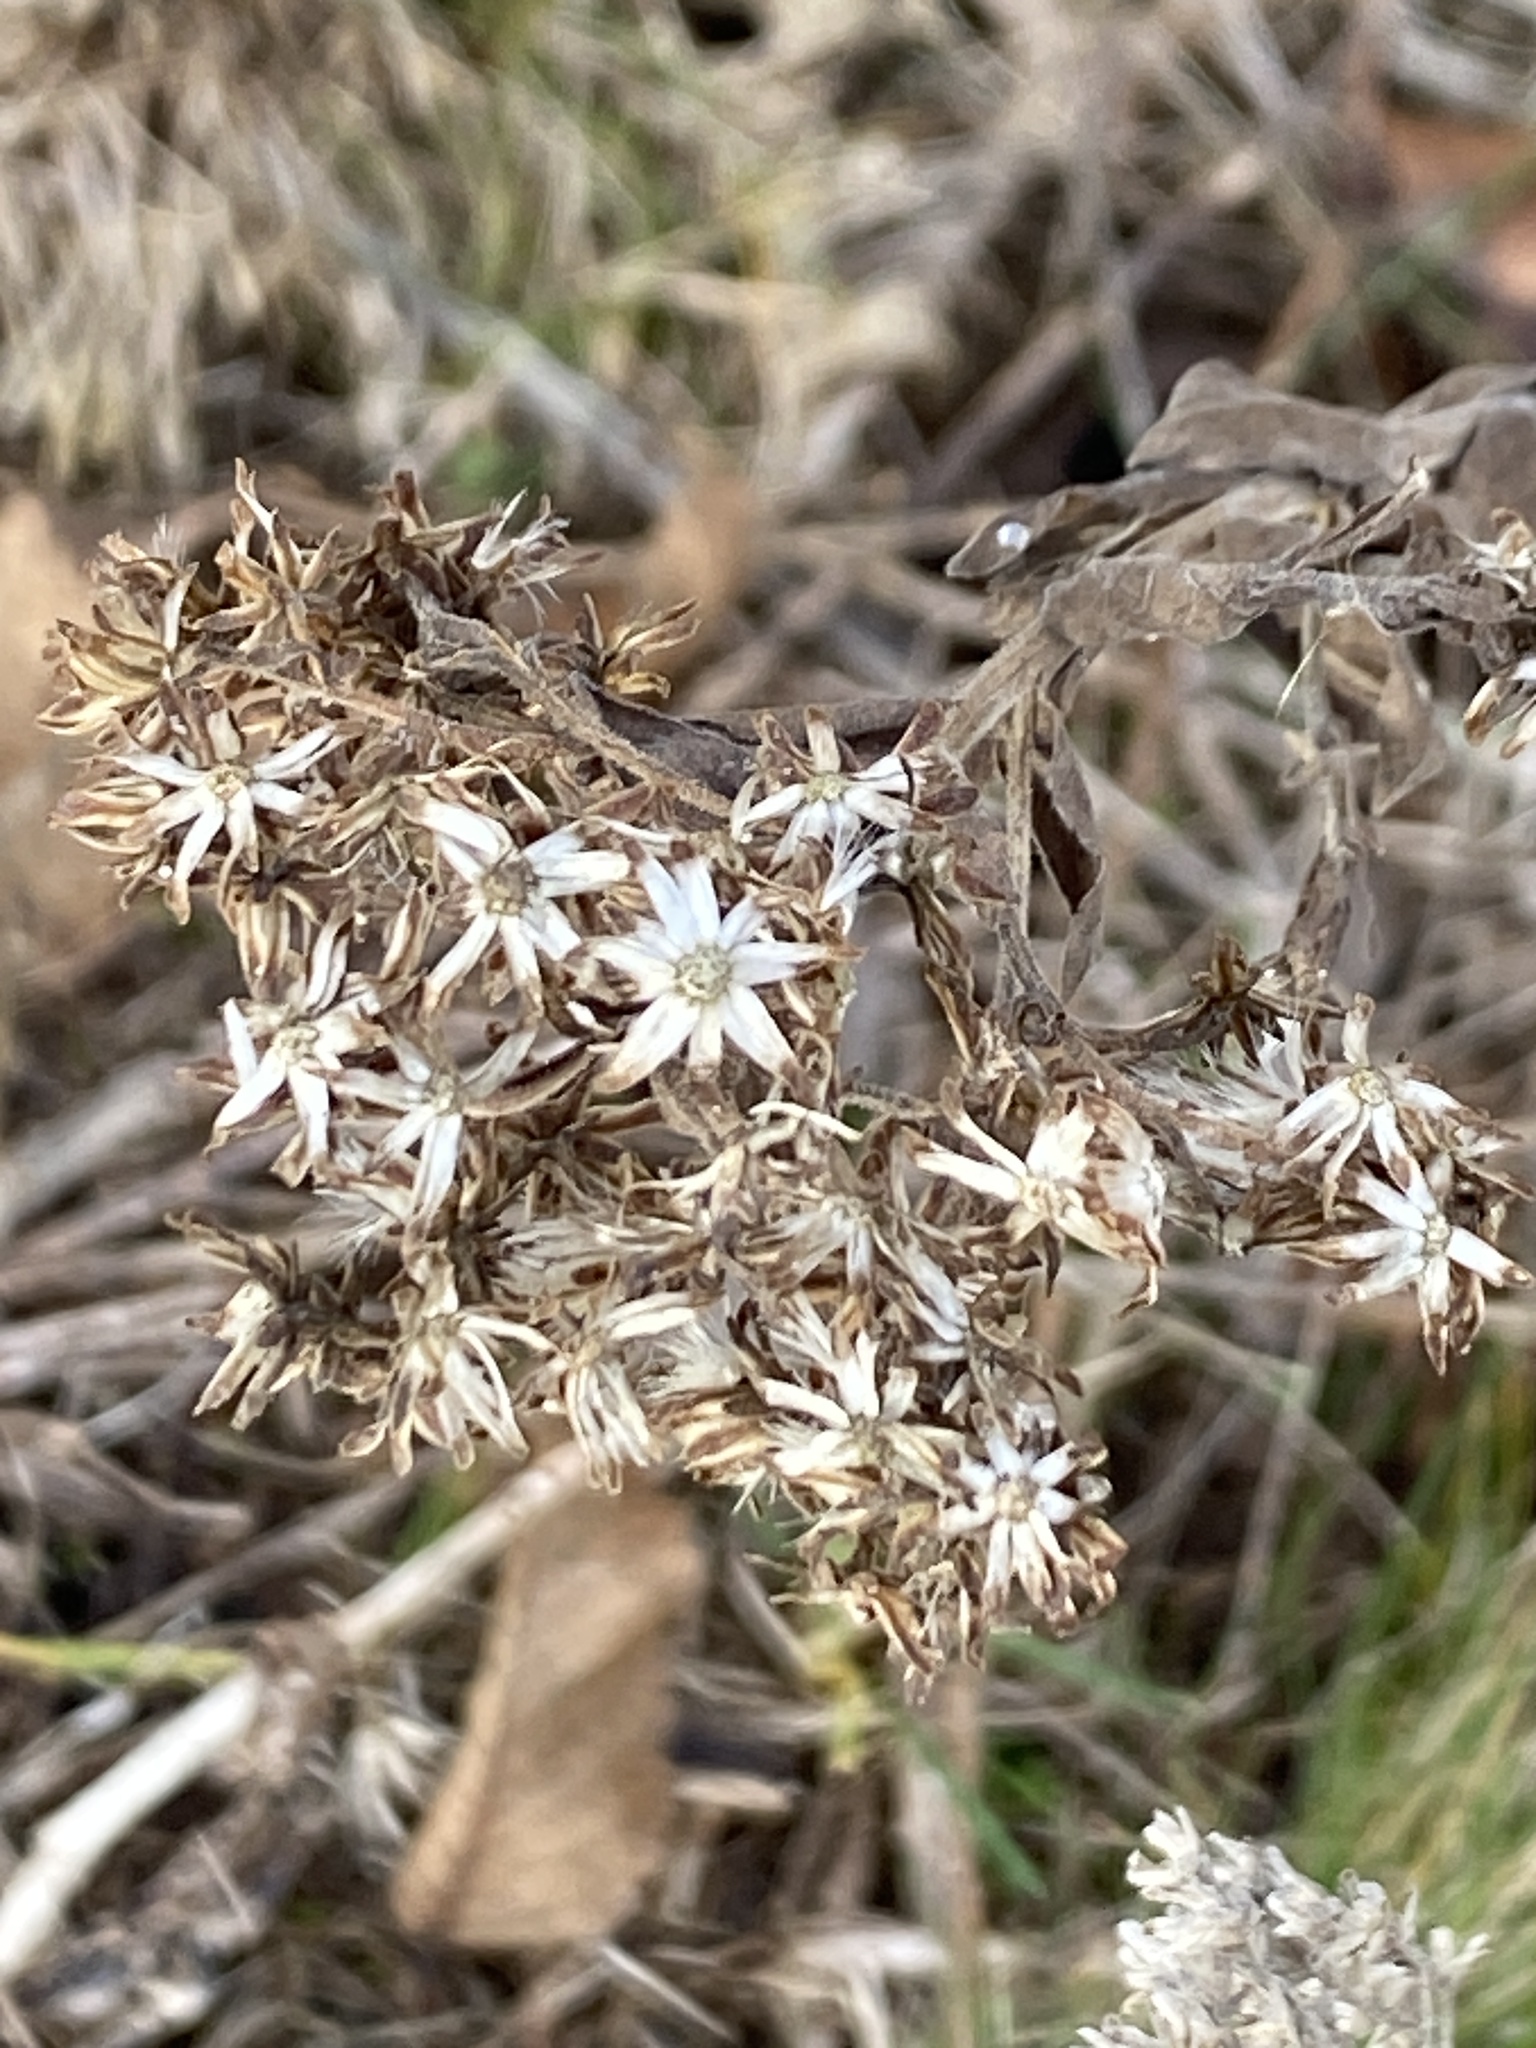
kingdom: Plantae
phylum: Tracheophyta
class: Magnoliopsida
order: Asterales
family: Asteraceae
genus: Solidago
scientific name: Solidago rigida
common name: Rigid goldenrod
